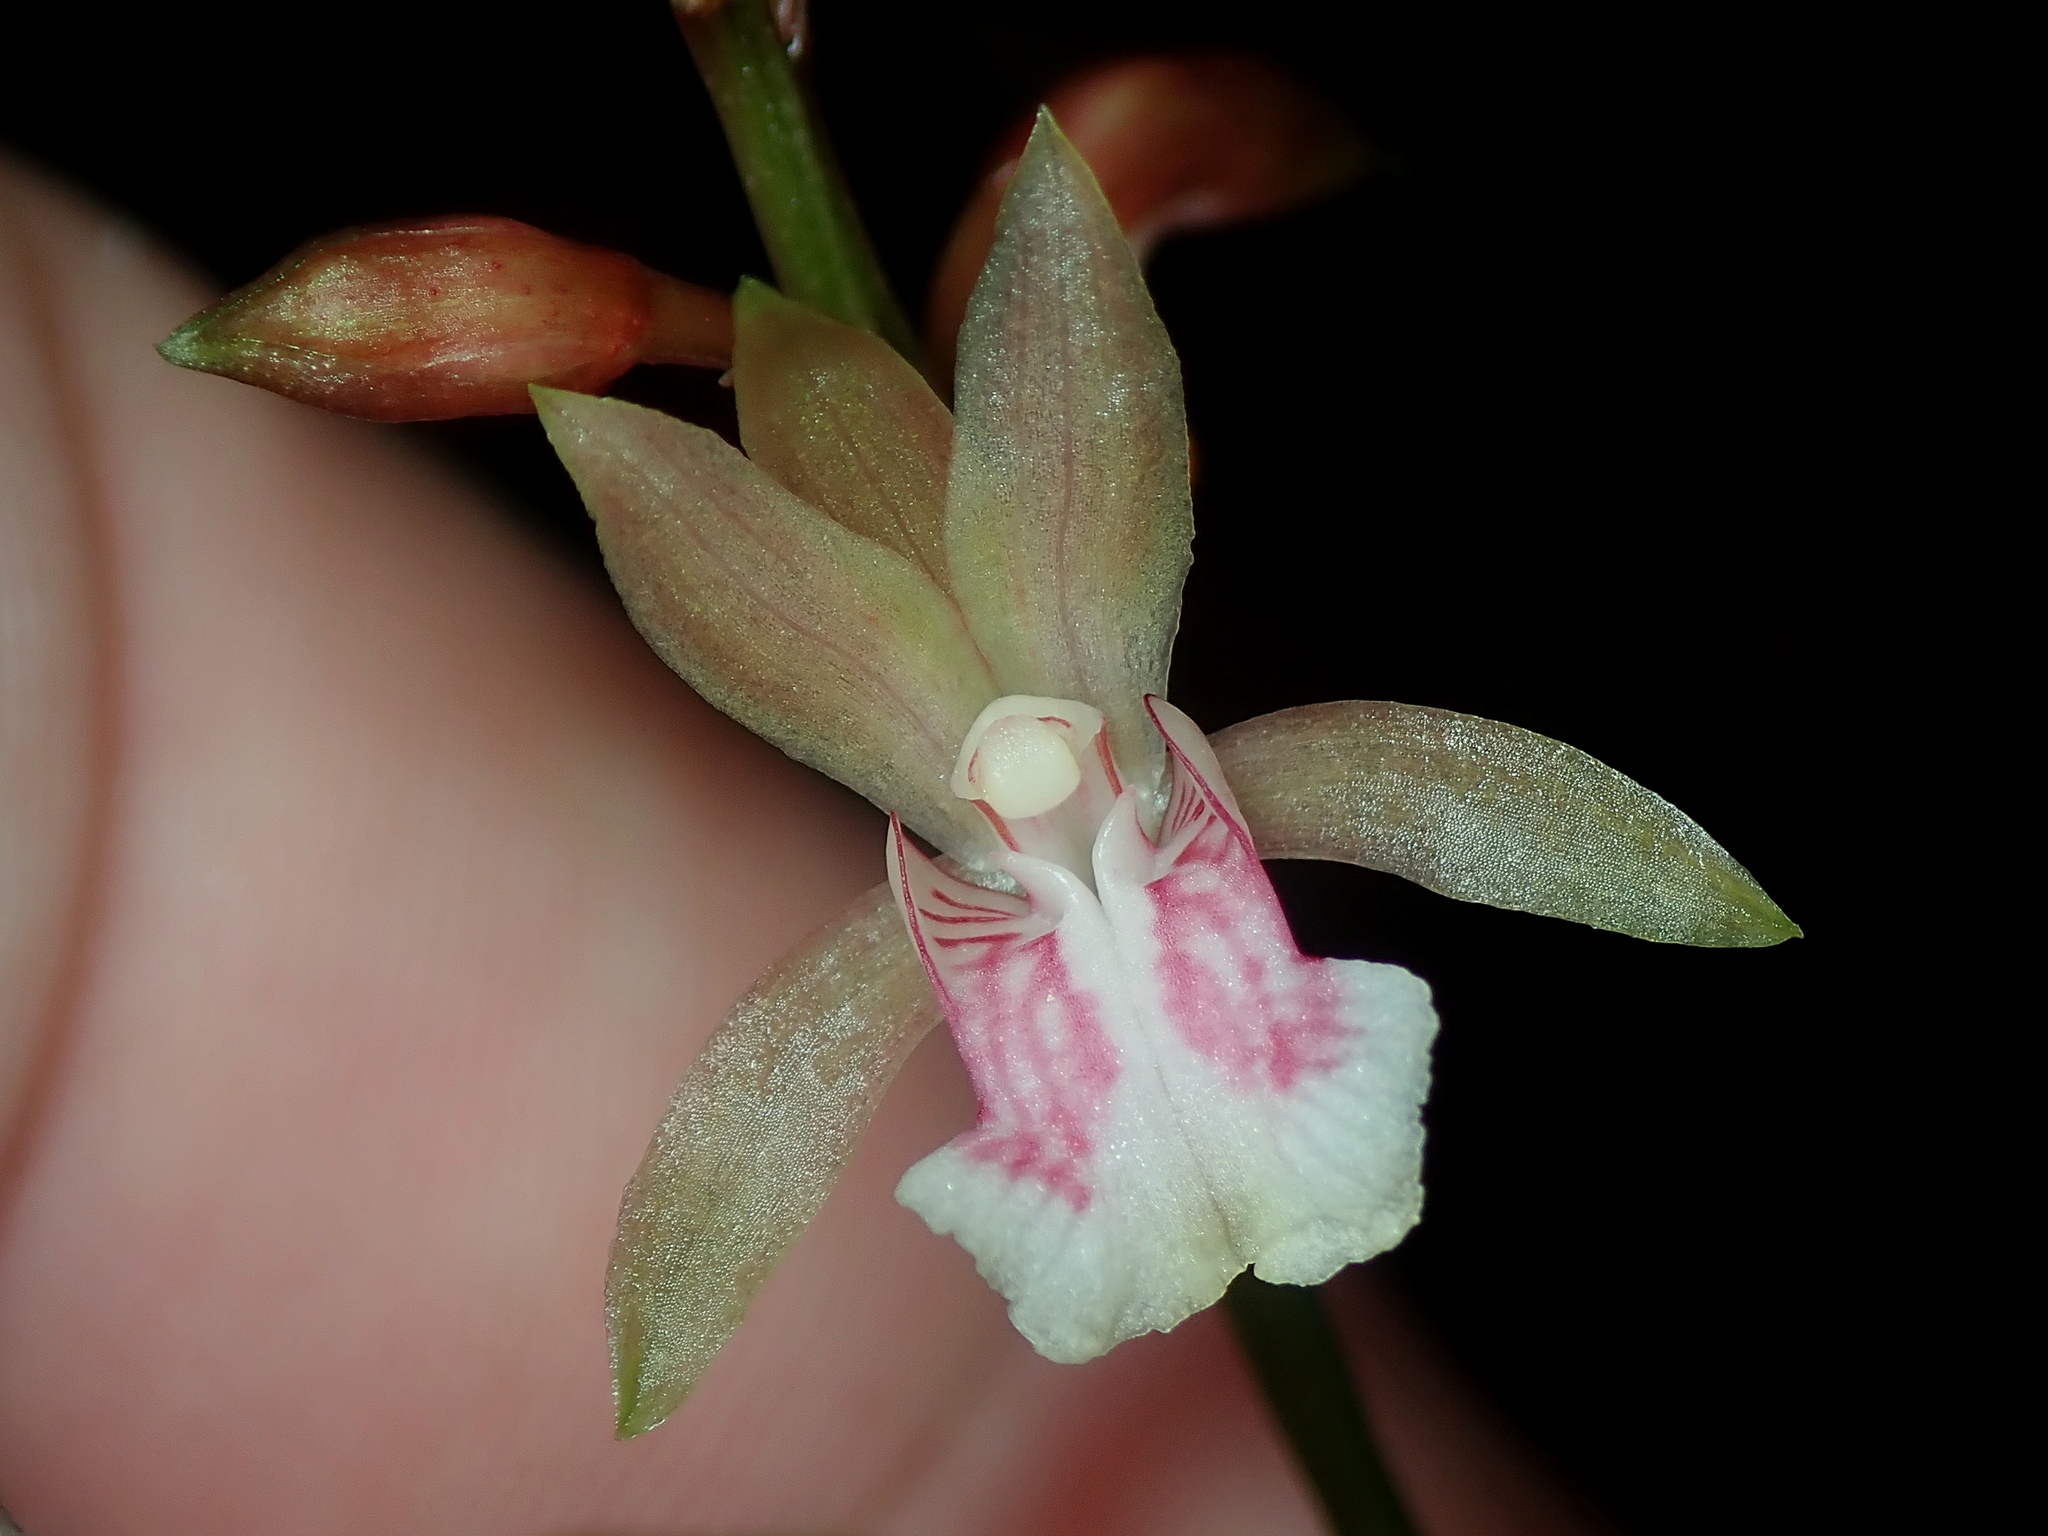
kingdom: Plantae
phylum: Tracheophyta
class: Liliopsida
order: Asparagales
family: Orchidaceae
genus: Eulophia
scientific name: Eulophia maculata
